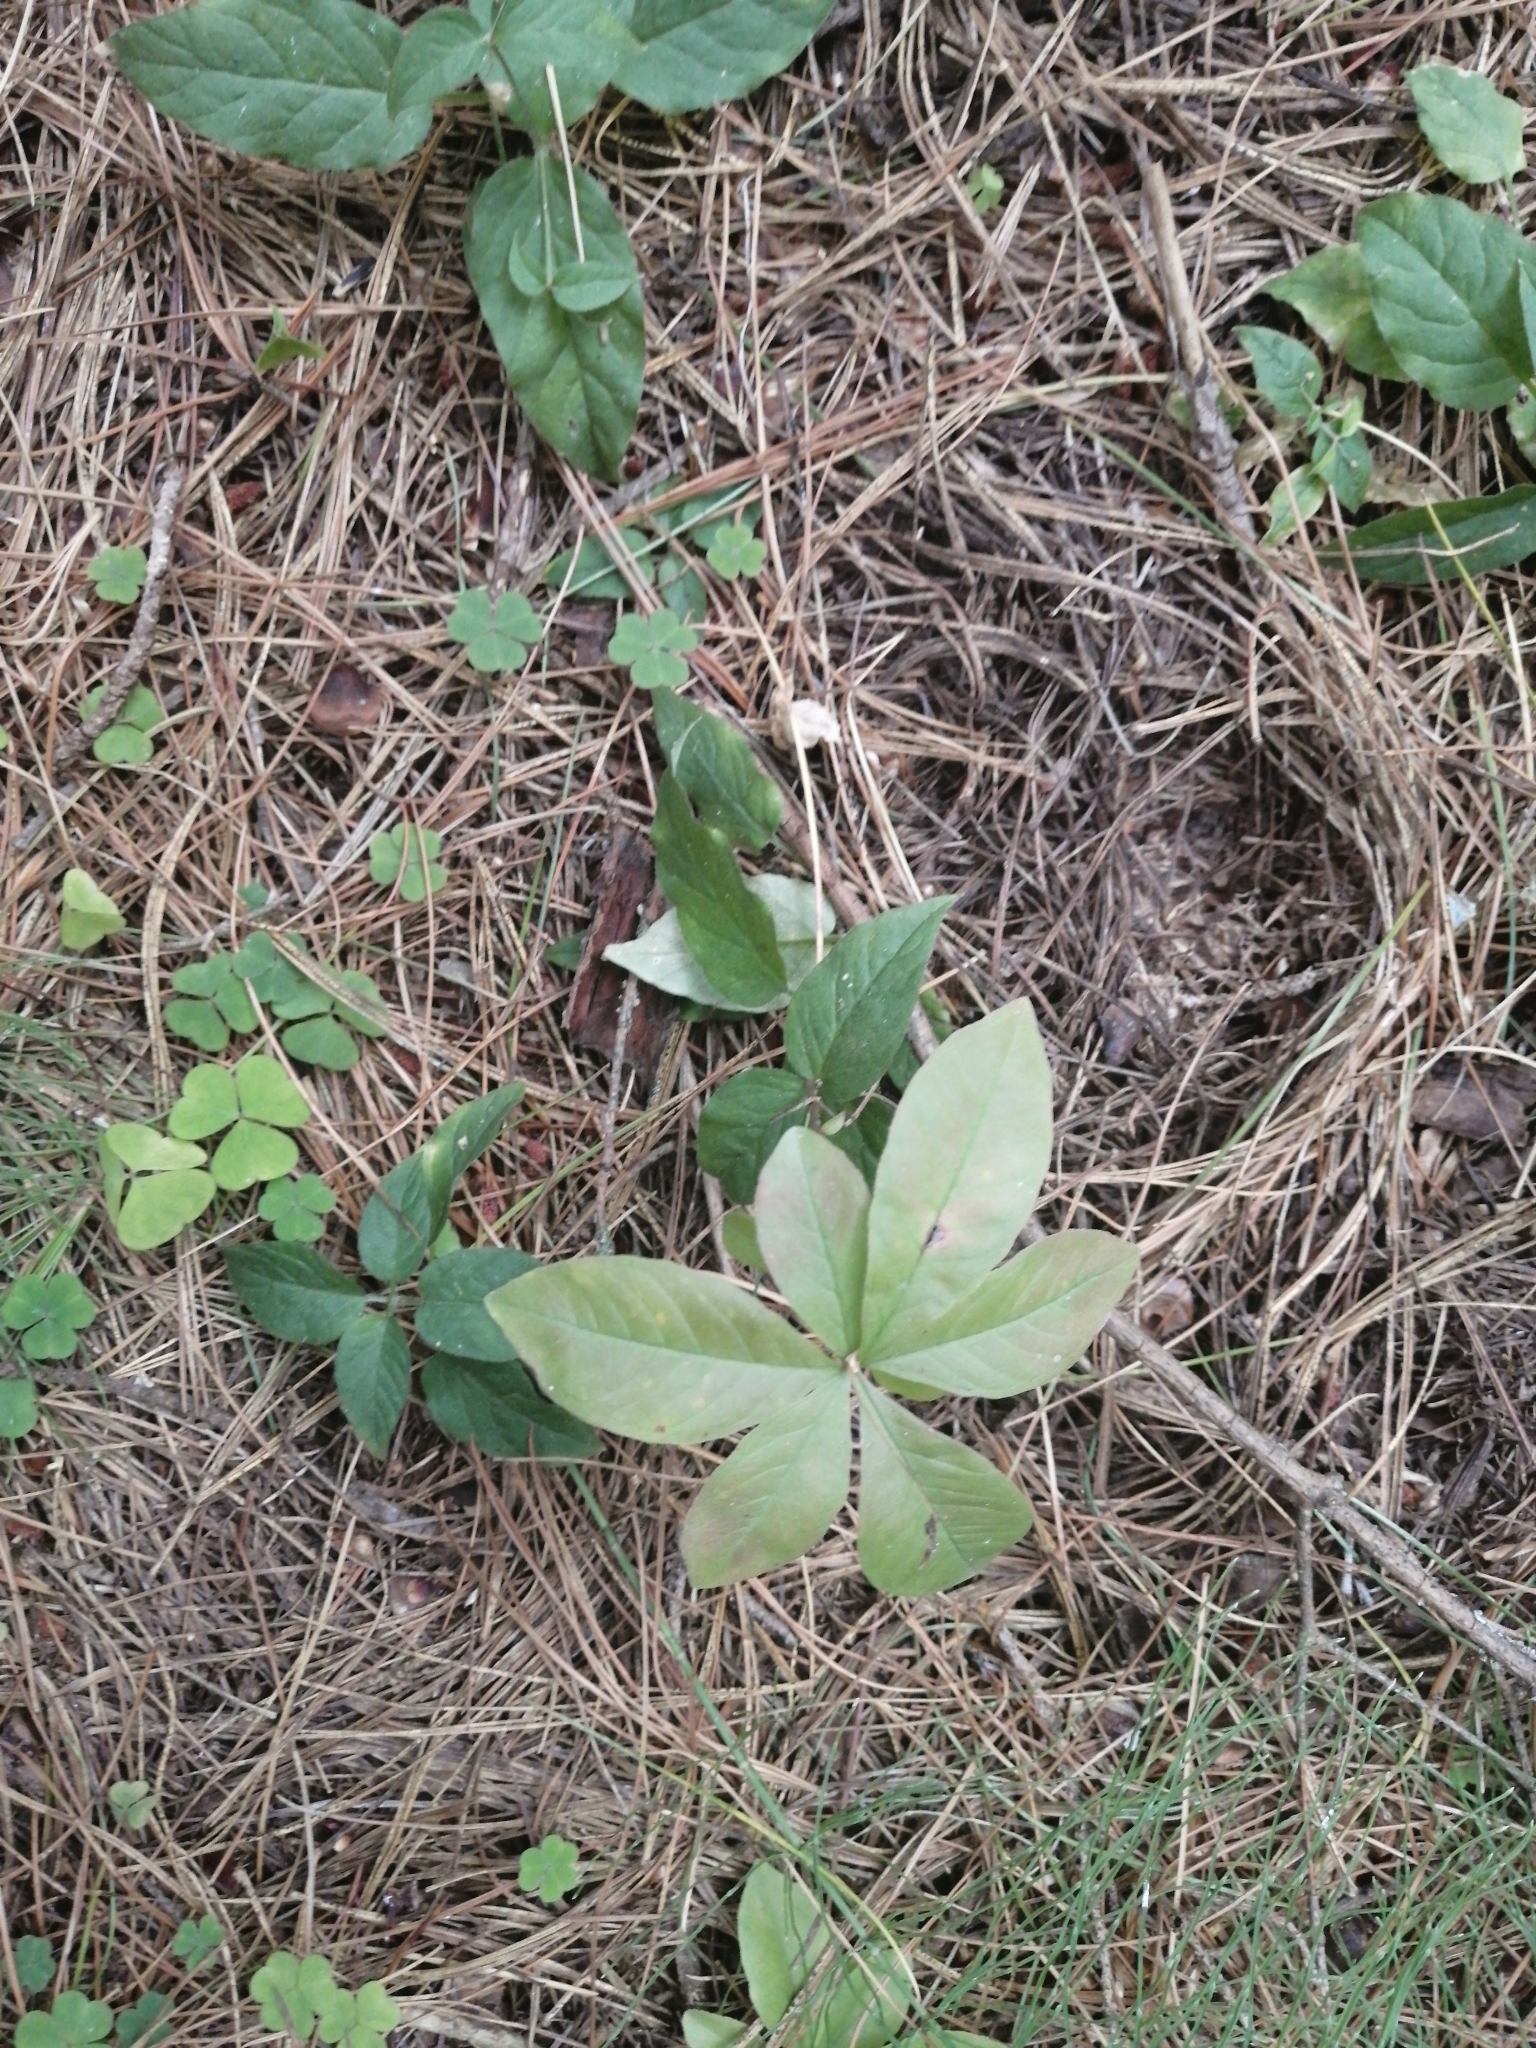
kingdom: Plantae
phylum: Tracheophyta
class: Magnoliopsida
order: Ericales
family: Primulaceae
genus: Lysimachia
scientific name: Lysimachia europaea
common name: Arctic starflower
